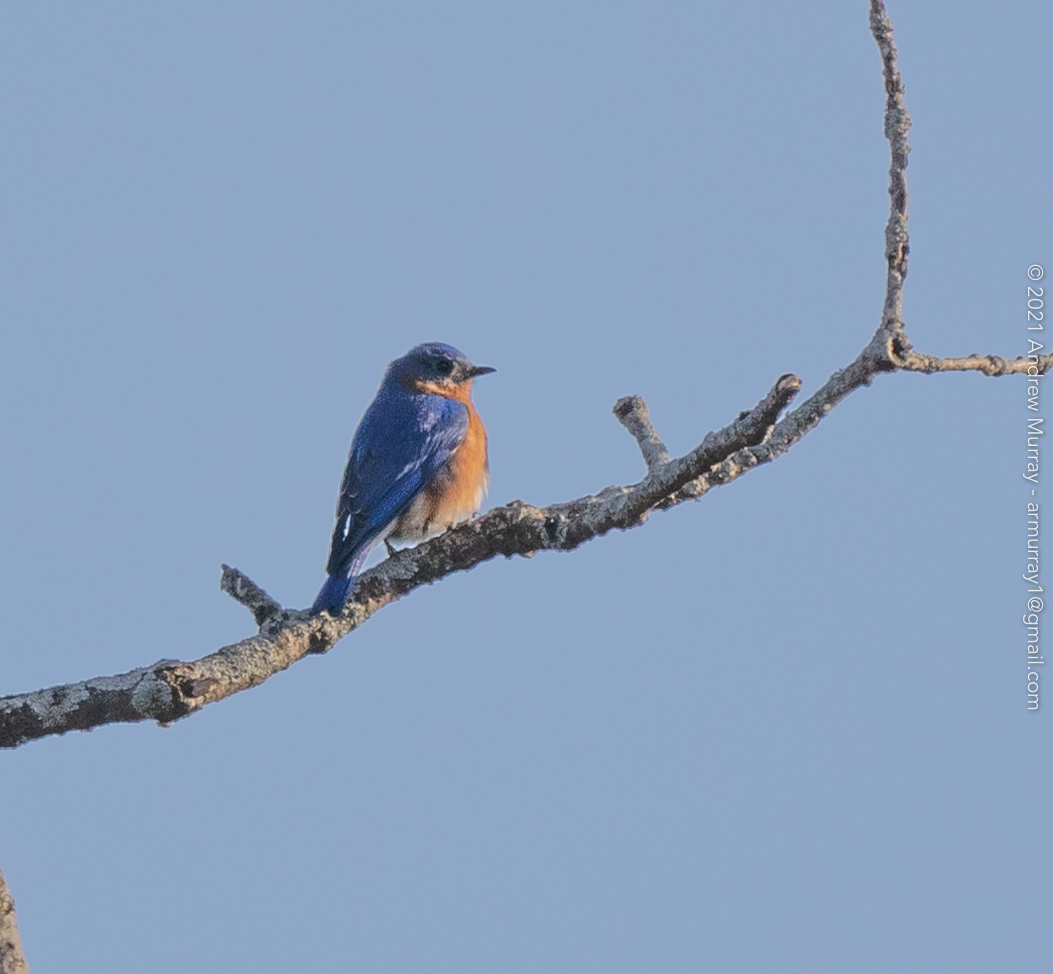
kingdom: Animalia
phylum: Chordata
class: Aves
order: Passeriformes
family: Turdidae
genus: Sialia
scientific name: Sialia sialis
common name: Eastern bluebird
